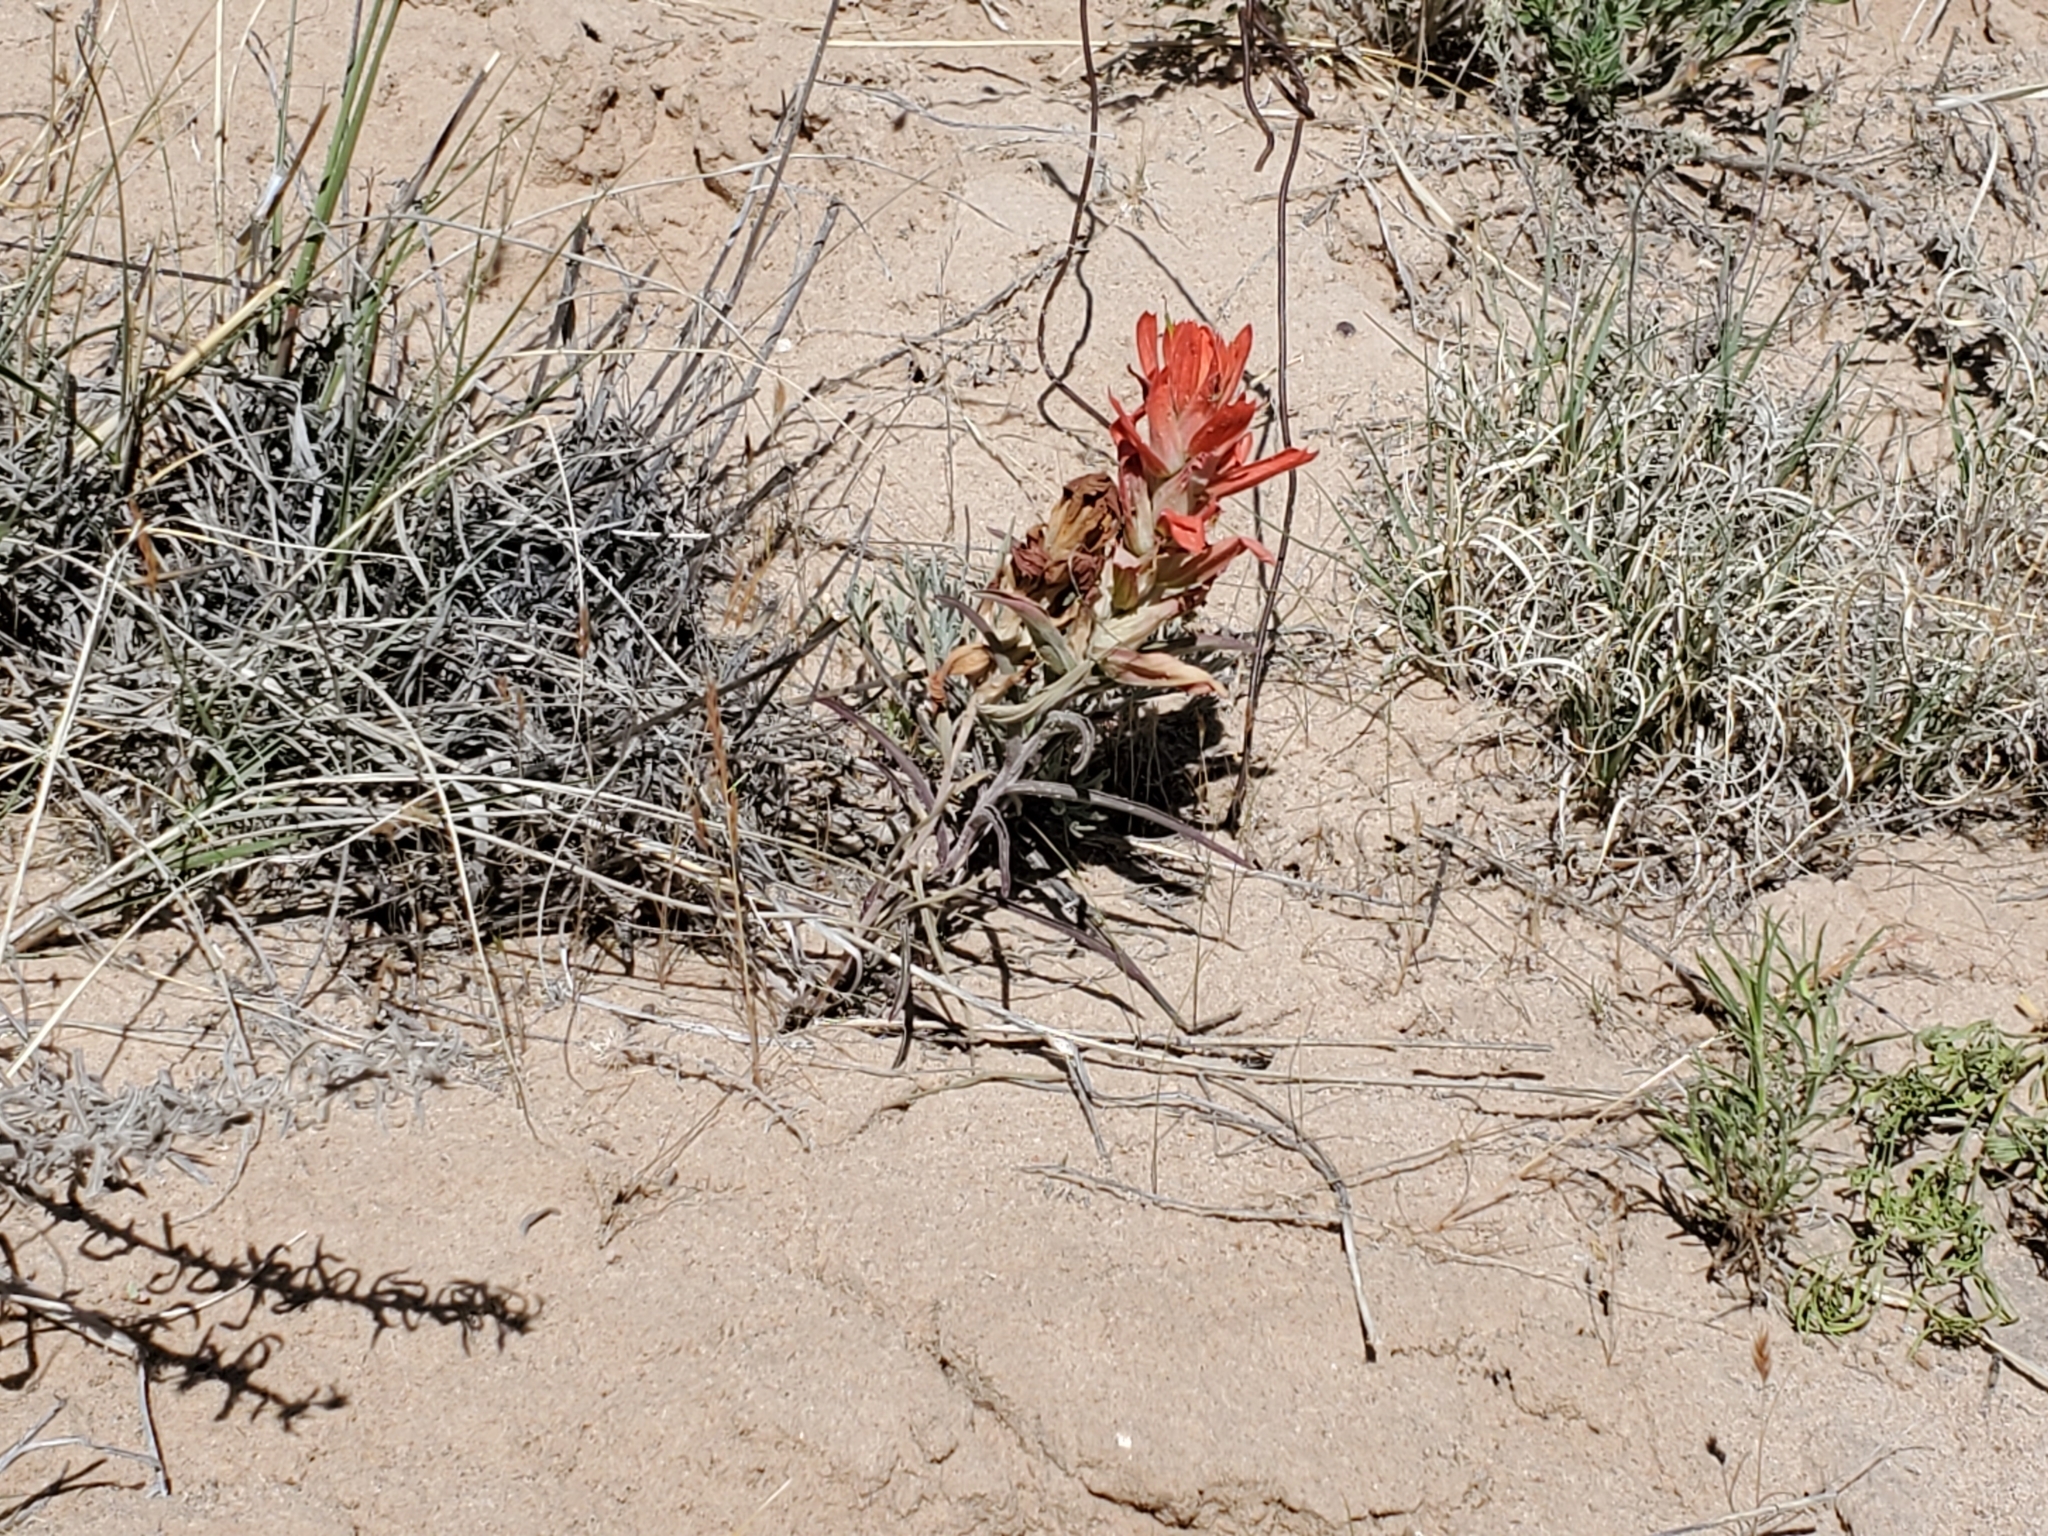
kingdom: Plantae
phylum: Tracheophyta
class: Magnoliopsida
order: Lamiales
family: Orobanchaceae
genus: Castilleja
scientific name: Castilleja integra
